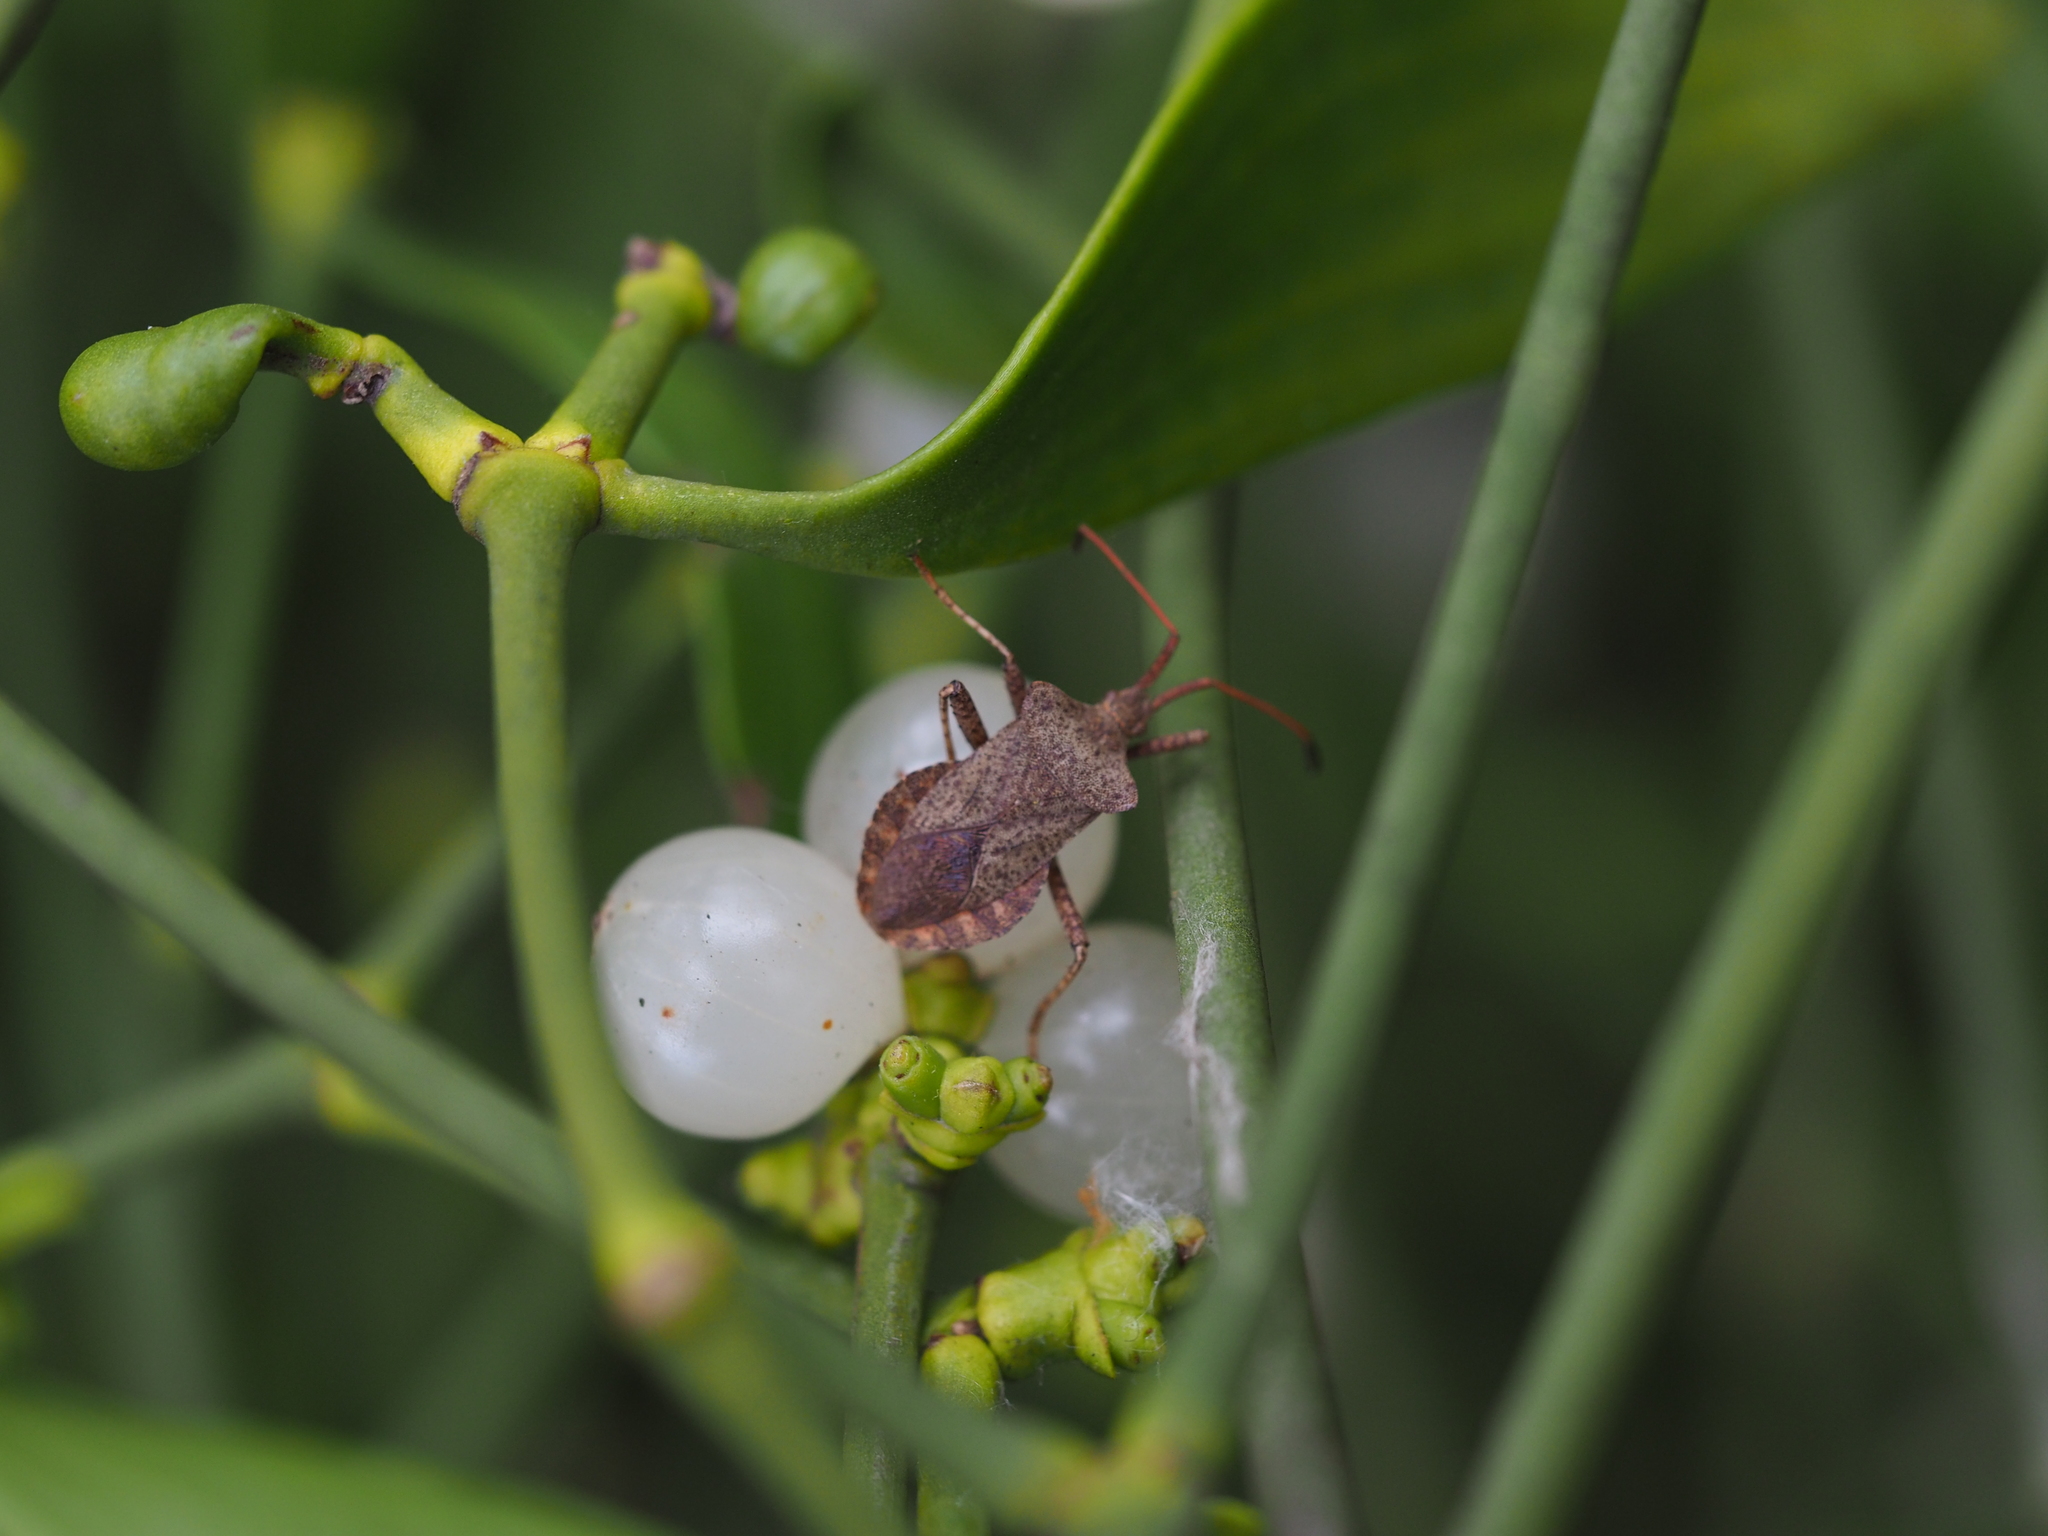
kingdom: Animalia
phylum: Arthropoda
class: Insecta
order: Hemiptera
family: Coreidae
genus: Coreus
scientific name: Coreus marginatus
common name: Dock bug
